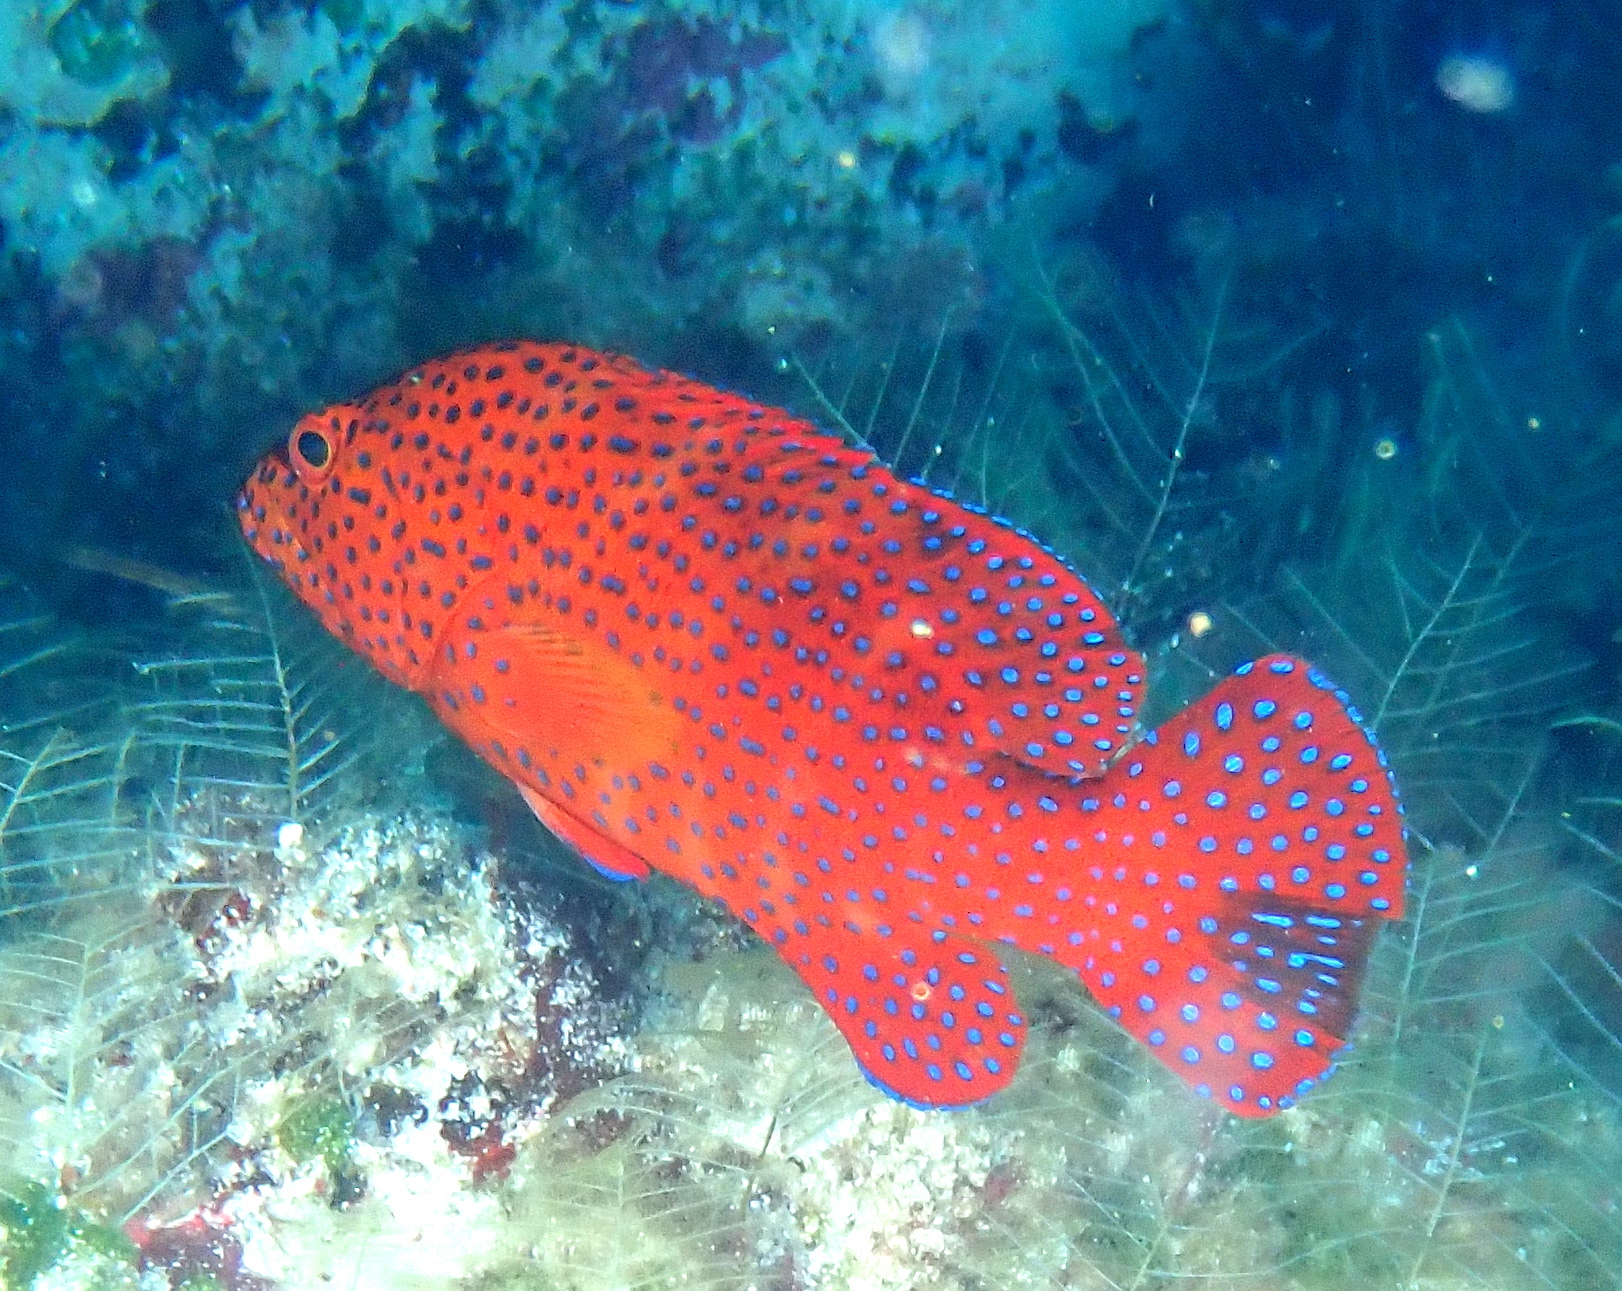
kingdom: Animalia
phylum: Chordata
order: Perciformes
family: Serranidae
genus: Cephalopholis
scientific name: Cephalopholis miniata
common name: Coral hind
